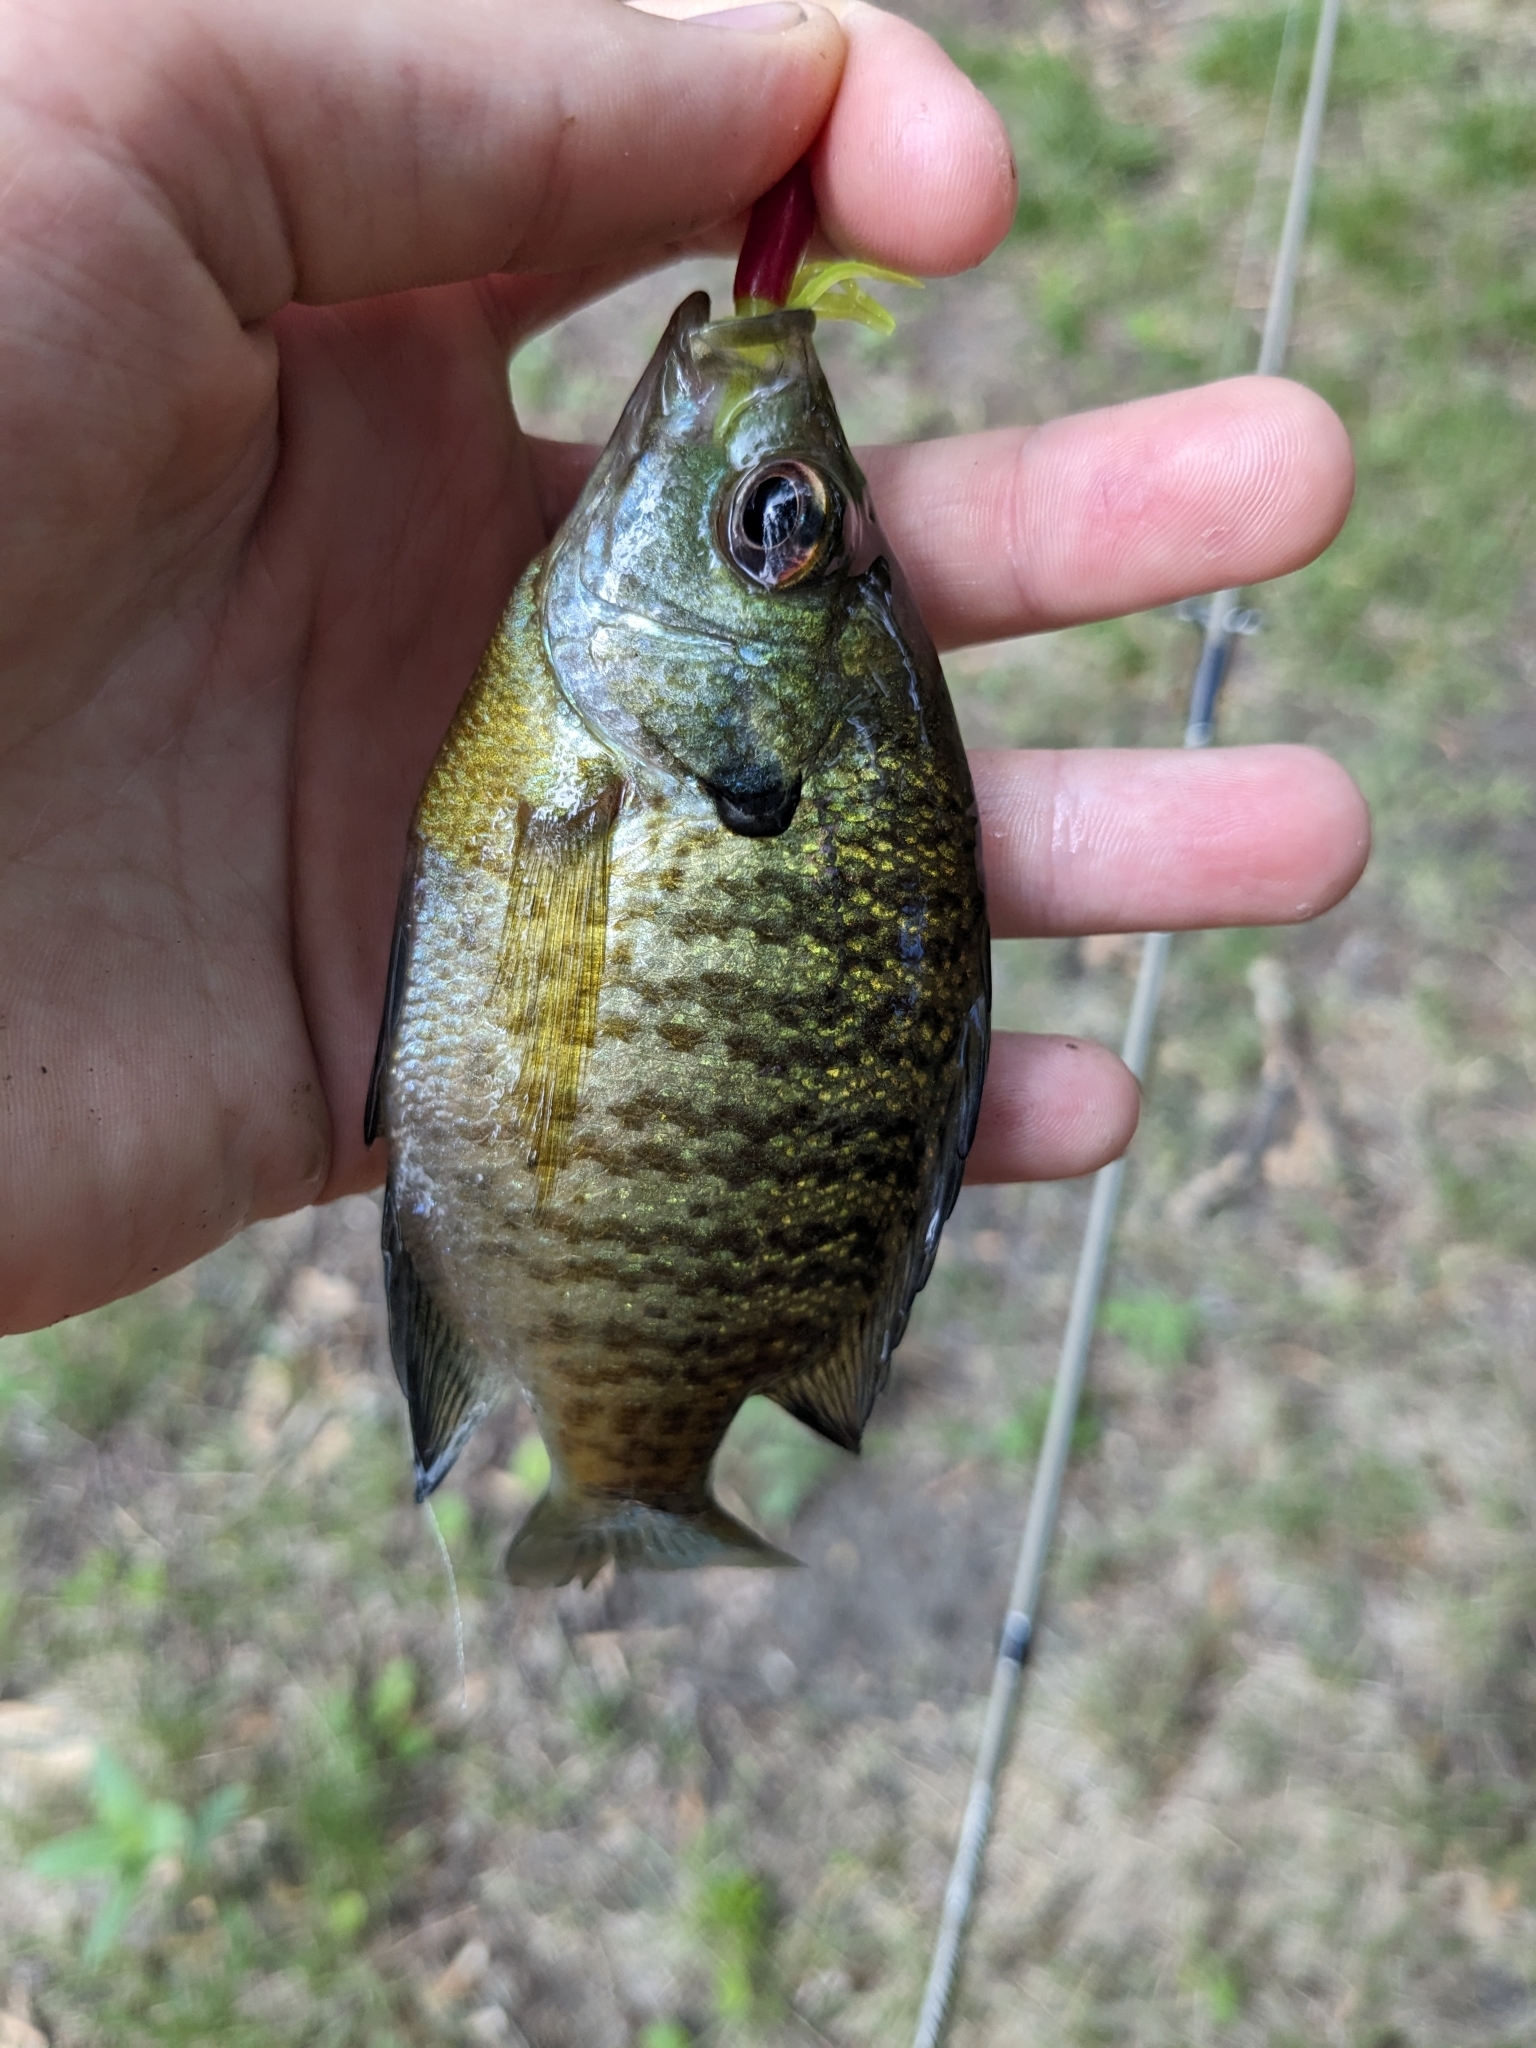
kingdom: Animalia
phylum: Chordata
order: Perciformes
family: Centrarchidae
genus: Lepomis
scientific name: Lepomis macrochirus
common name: Bluegill
